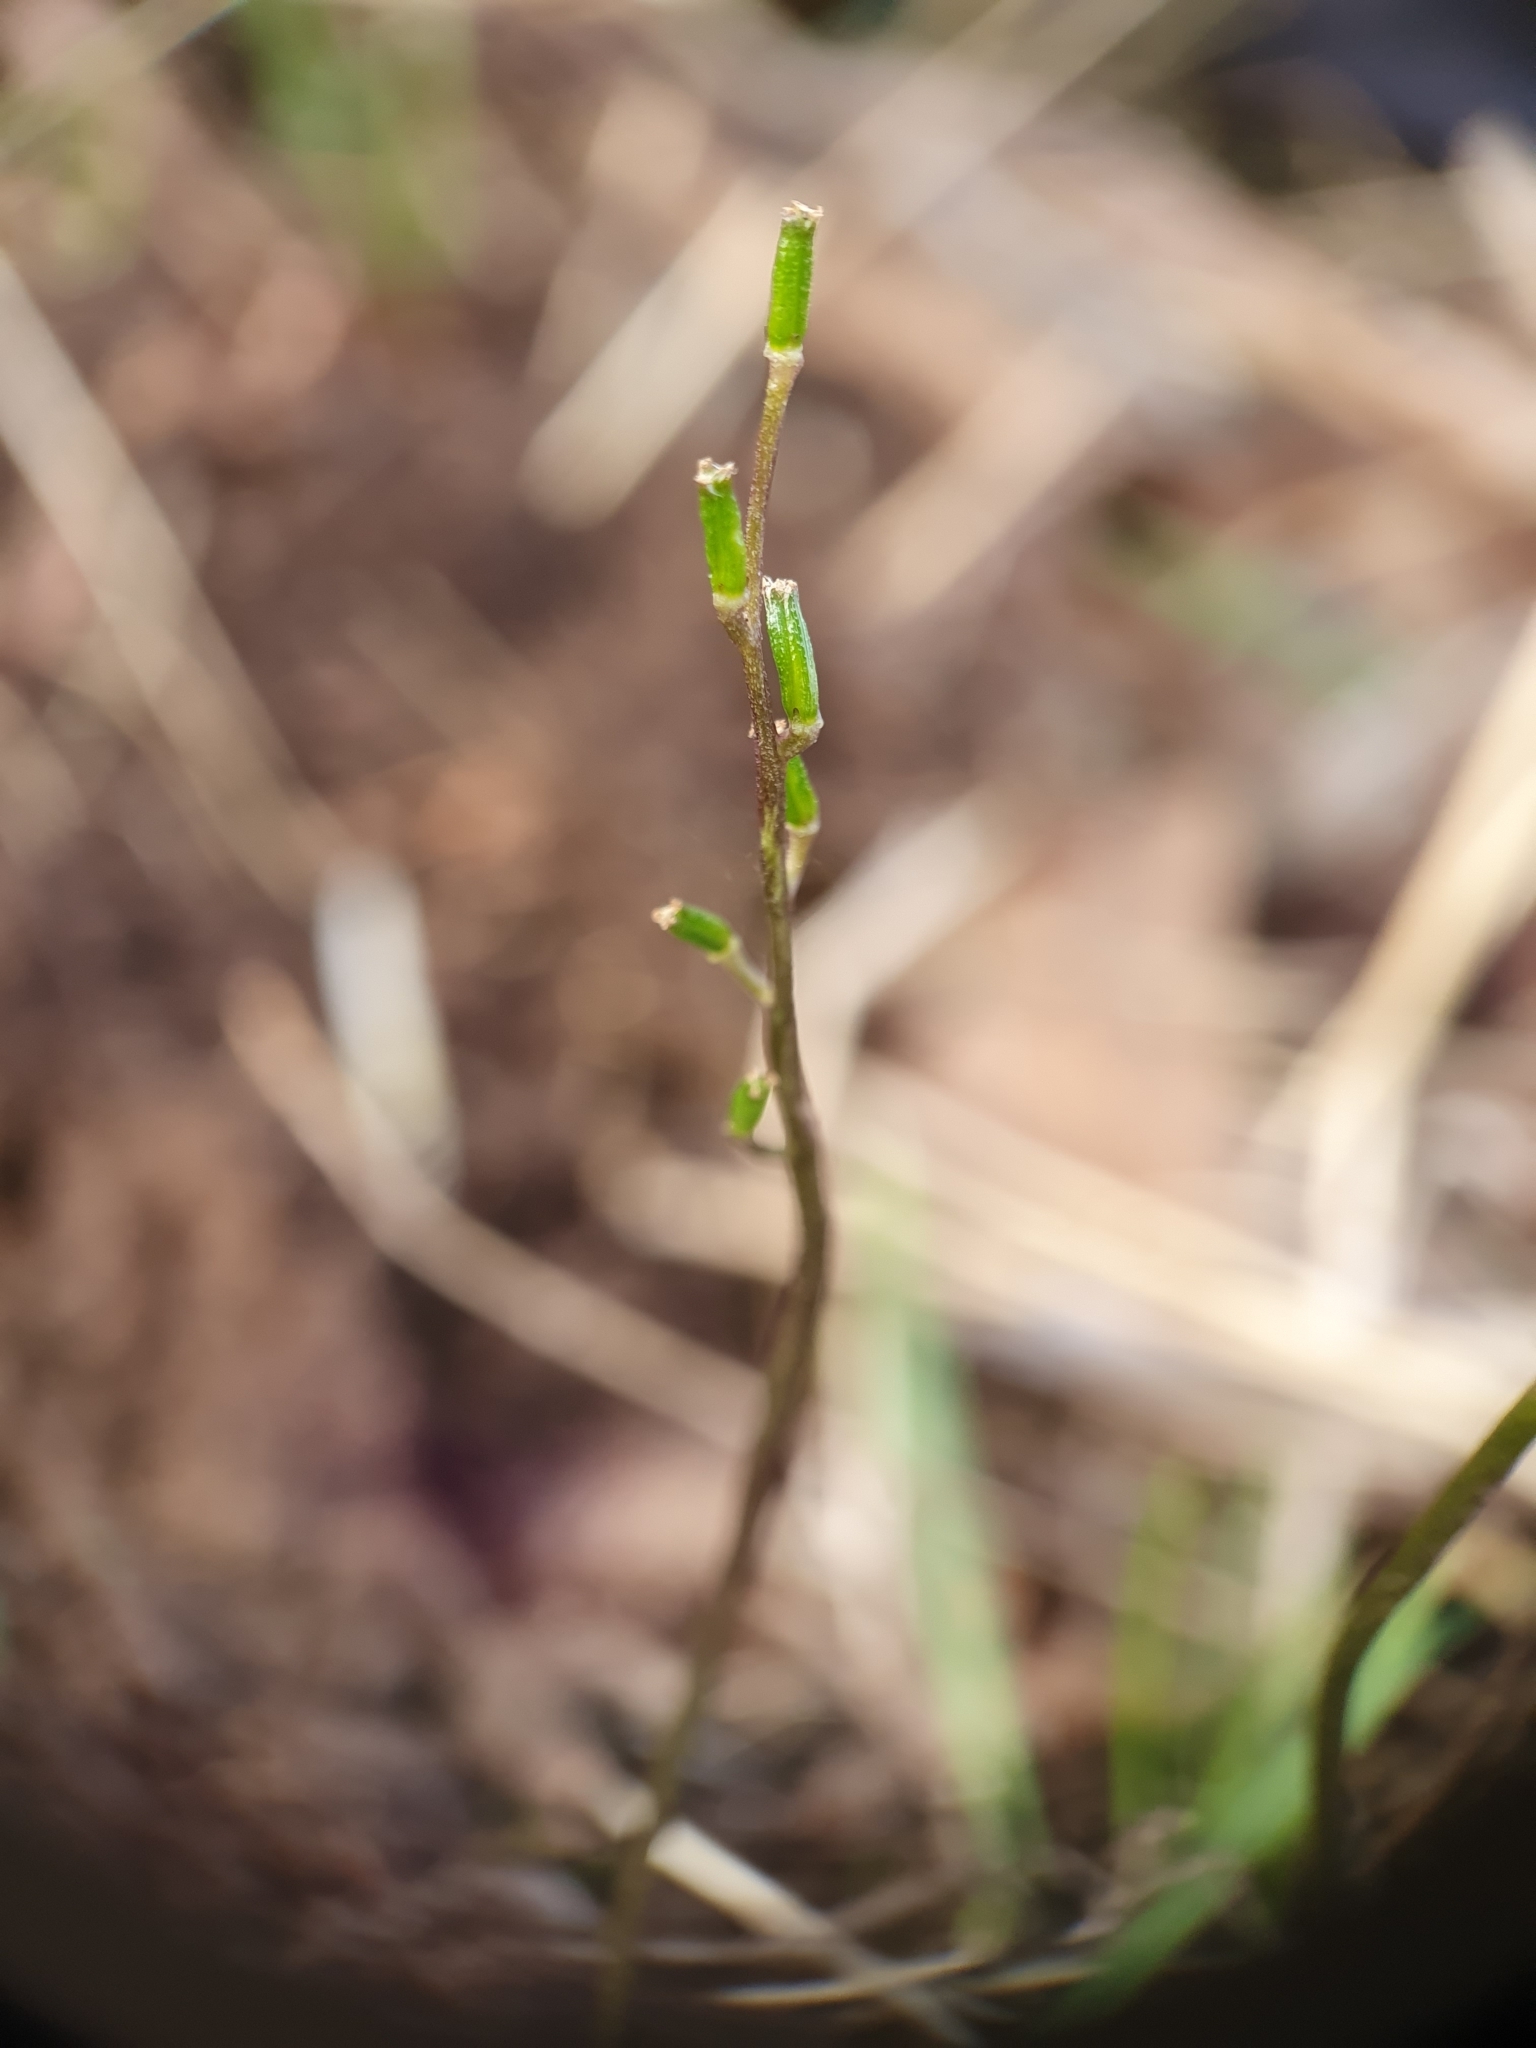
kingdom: Plantae
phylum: Tracheophyta
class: Liliopsida
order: Alismatales
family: Juncaginaceae
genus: Triglochin
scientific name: Triglochin laxiflora
